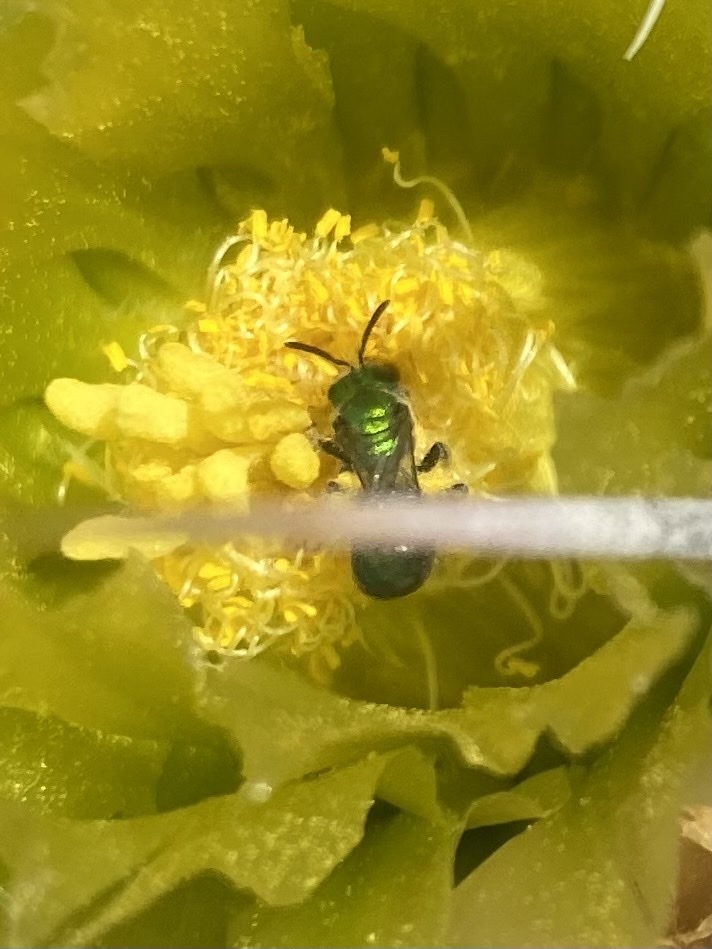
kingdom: Animalia
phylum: Arthropoda
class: Insecta
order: Hymenoptera
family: Halictidae
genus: Augochlorella
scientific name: Augochlorella pomoniella
